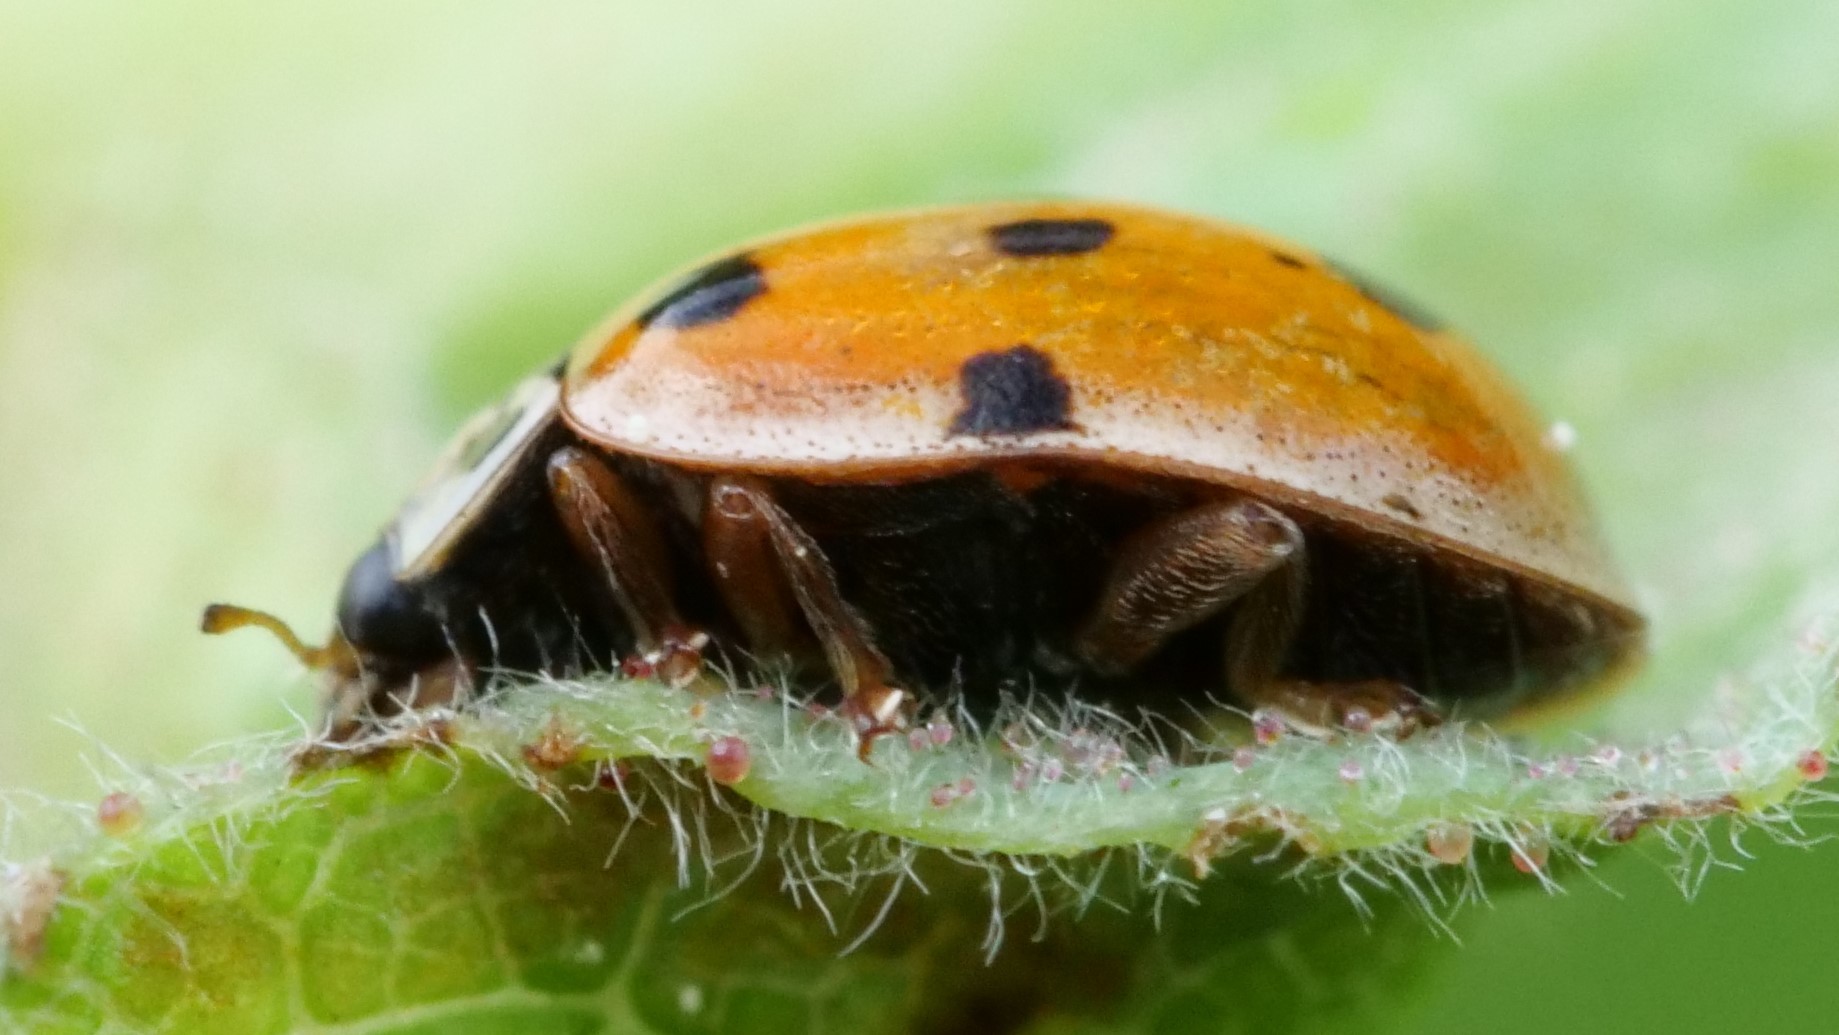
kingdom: Animalia
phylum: Arthropoda
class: Insecta
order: Coleoptera
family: Coccinellidae
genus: Adalia
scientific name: Adalia decempunctata
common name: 10-spot ladybird
